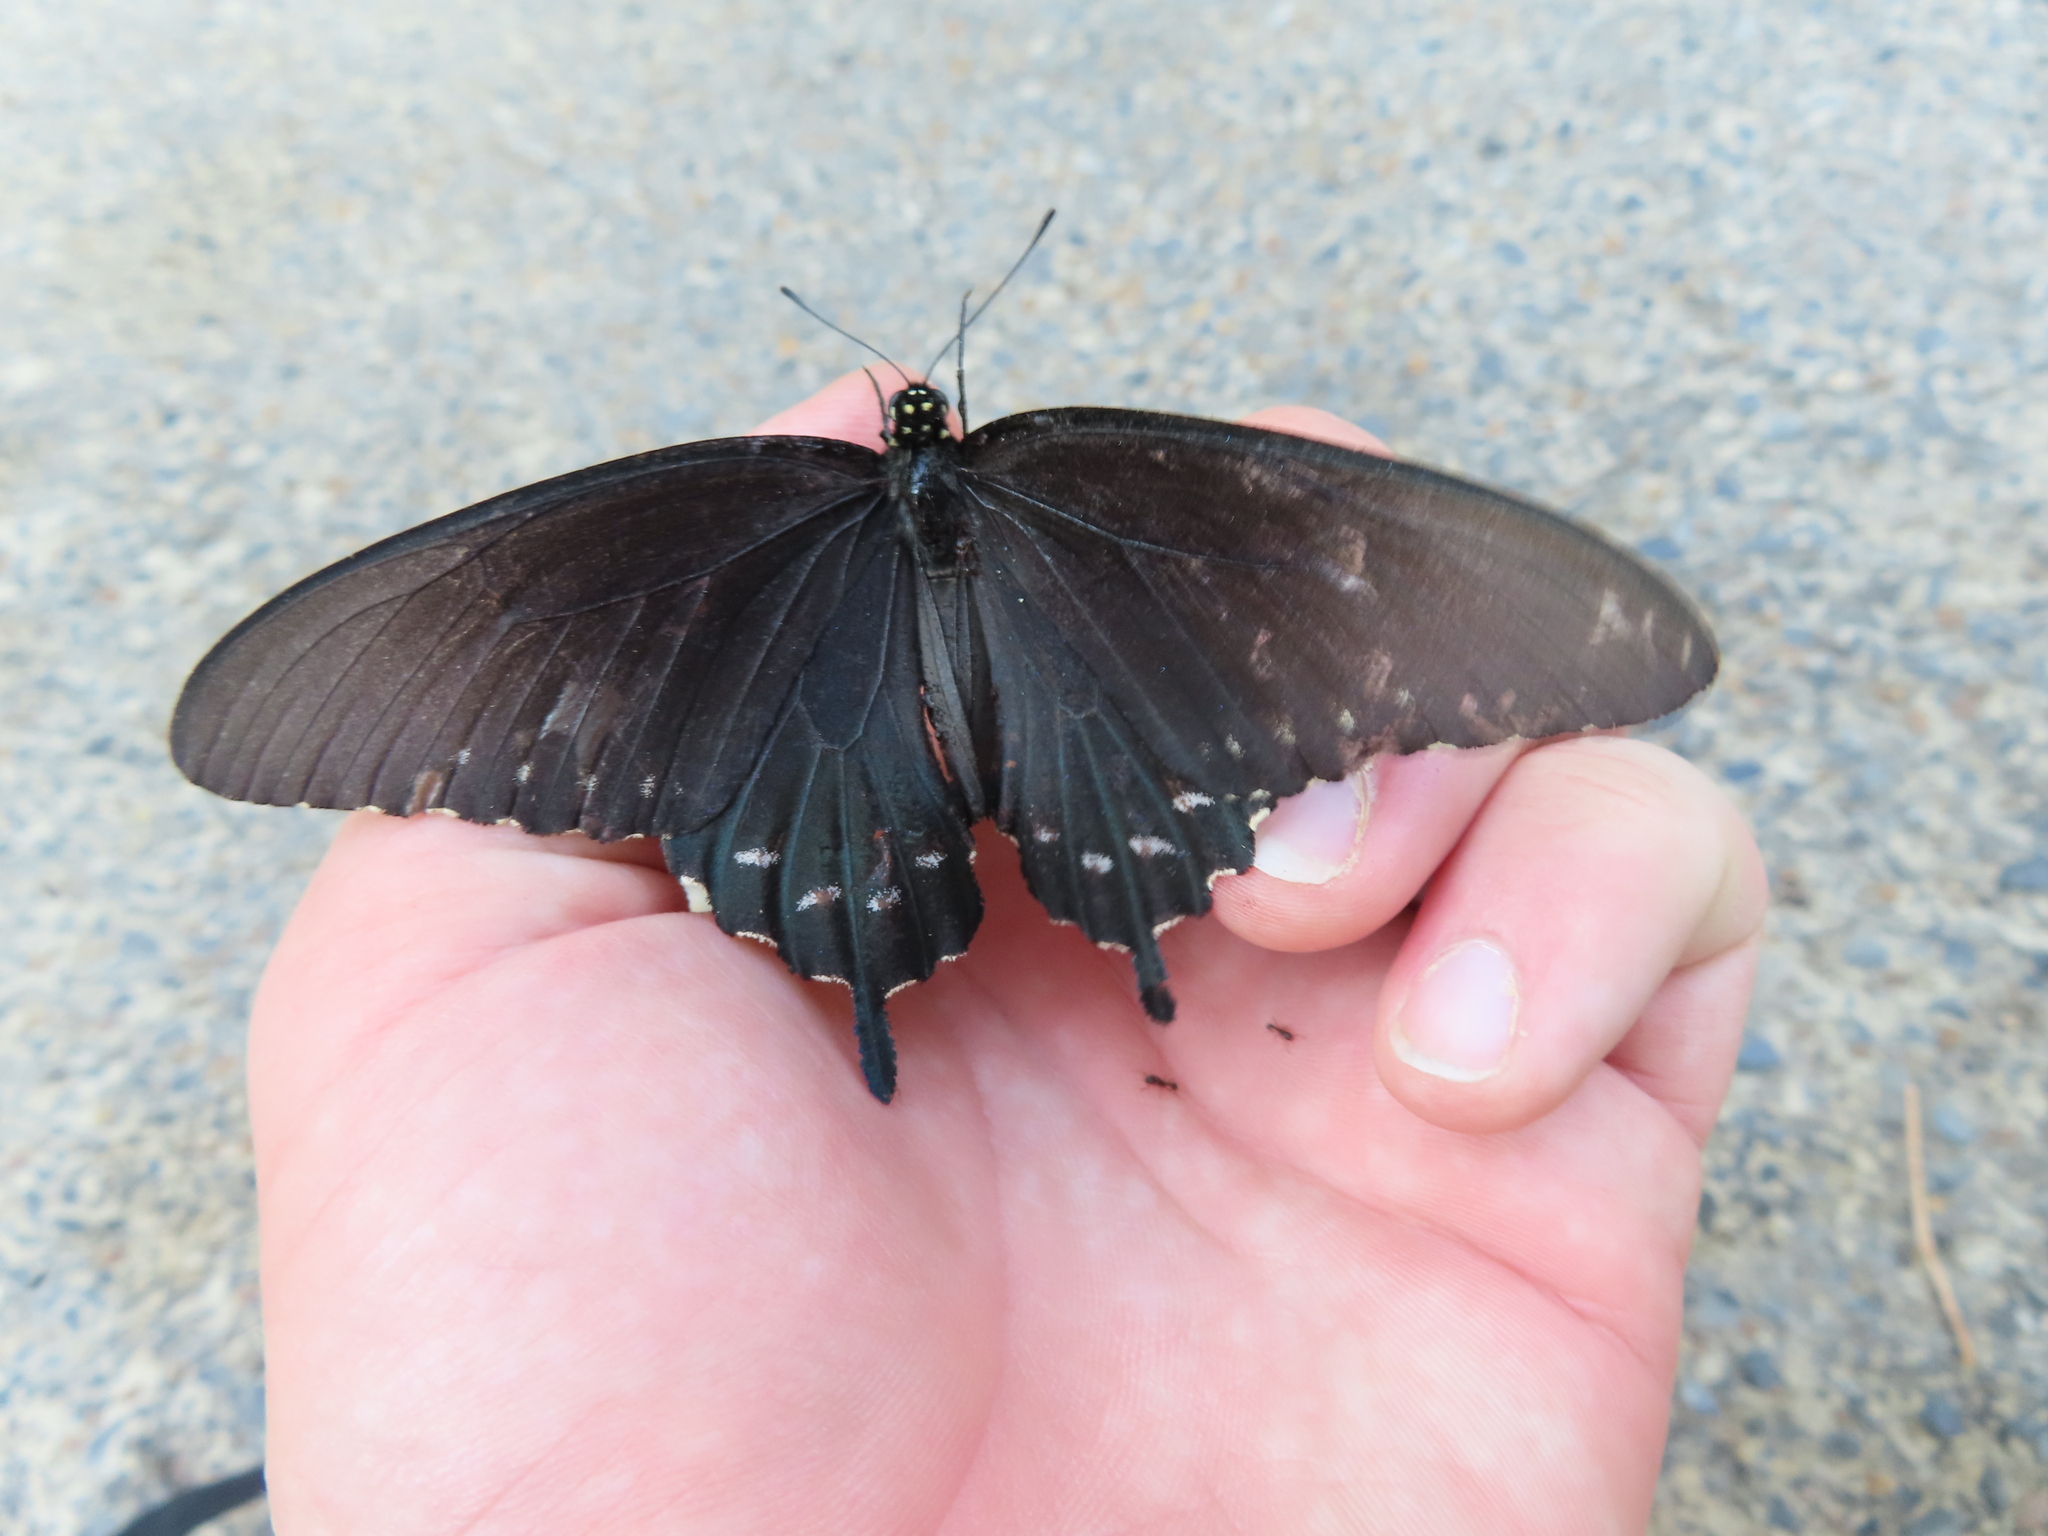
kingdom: Animalia
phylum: Arthropoda
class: Insecta
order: Lepidoptera
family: Papilionidae
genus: Battus
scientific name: Battus philenor
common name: Pipevine swallowtail
